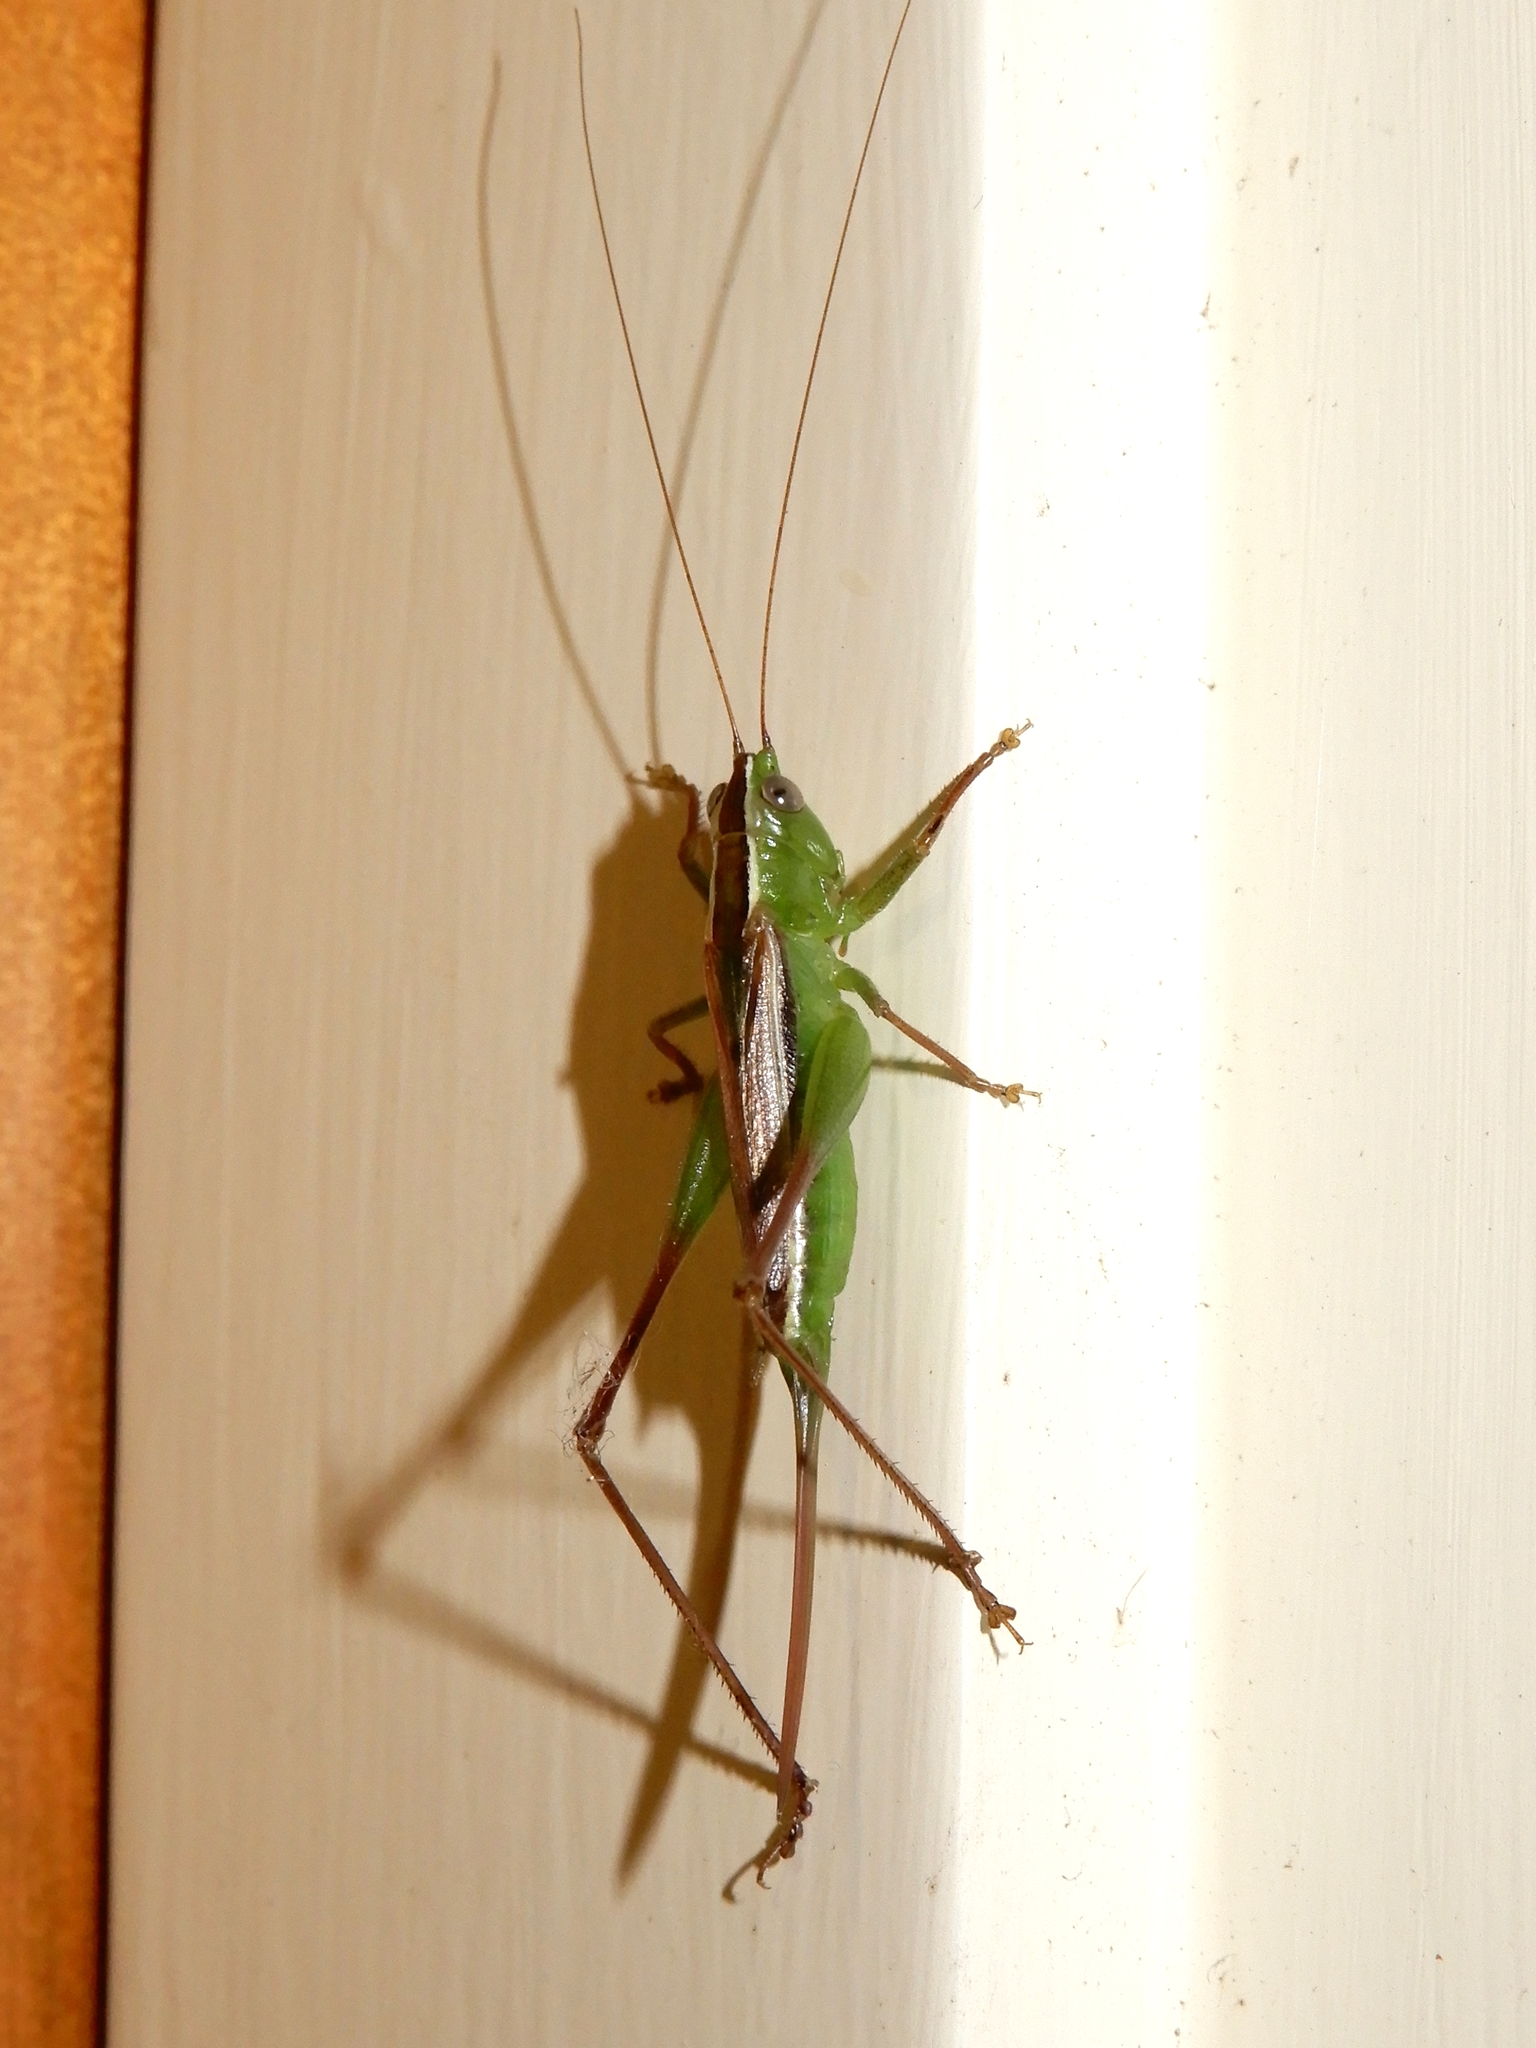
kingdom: Animalia
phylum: Arthropoda
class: Insecta
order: Orthoptera
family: Tettigoniidae
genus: Conocephalus
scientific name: Conocephalus albescens
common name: Whitish meadow katydid
